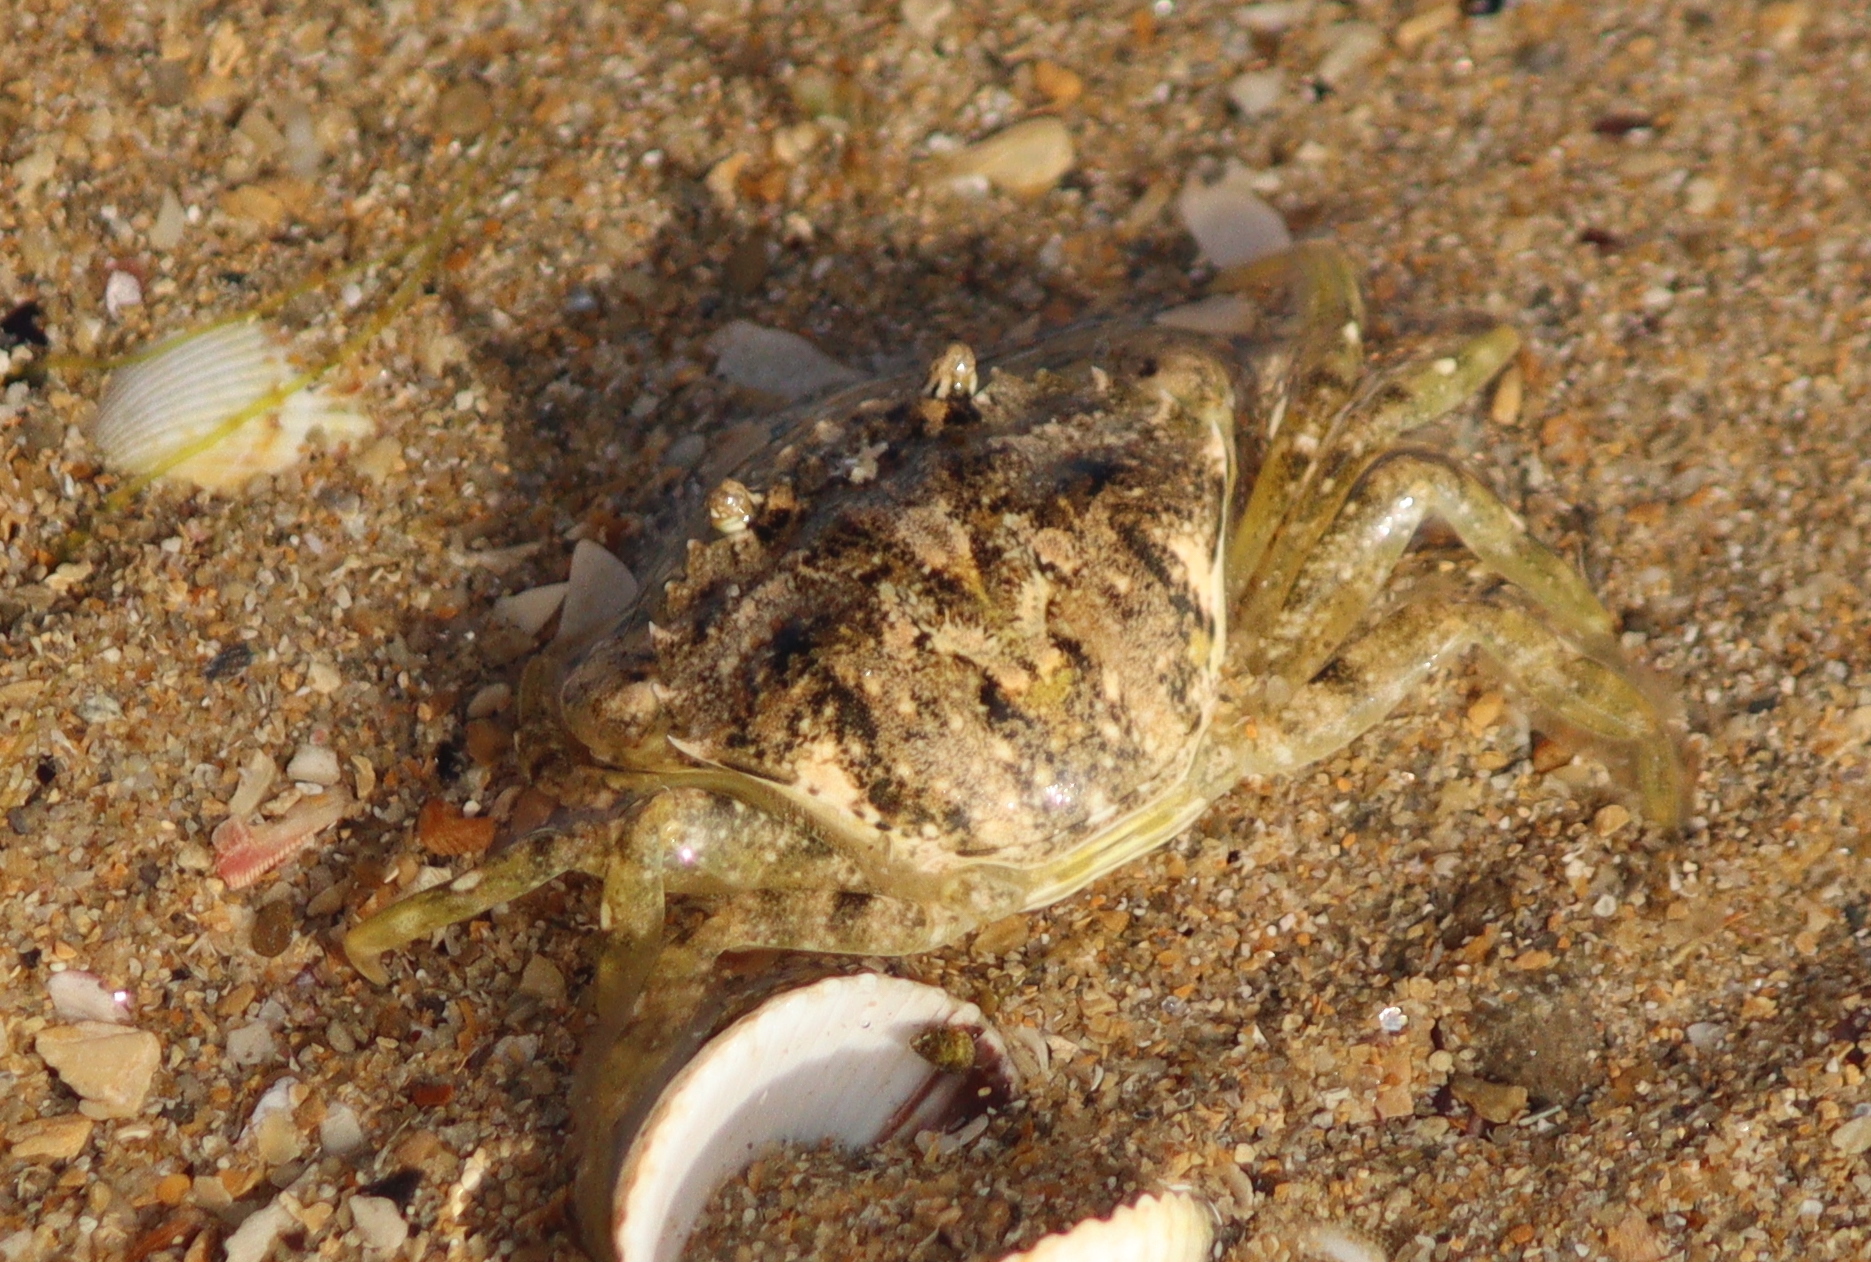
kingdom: Animalia
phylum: Arthropoda
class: Malacostraca
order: Decapoda
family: Carcinidae
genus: Carcinus
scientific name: Carcinus maenas
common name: European green crab
